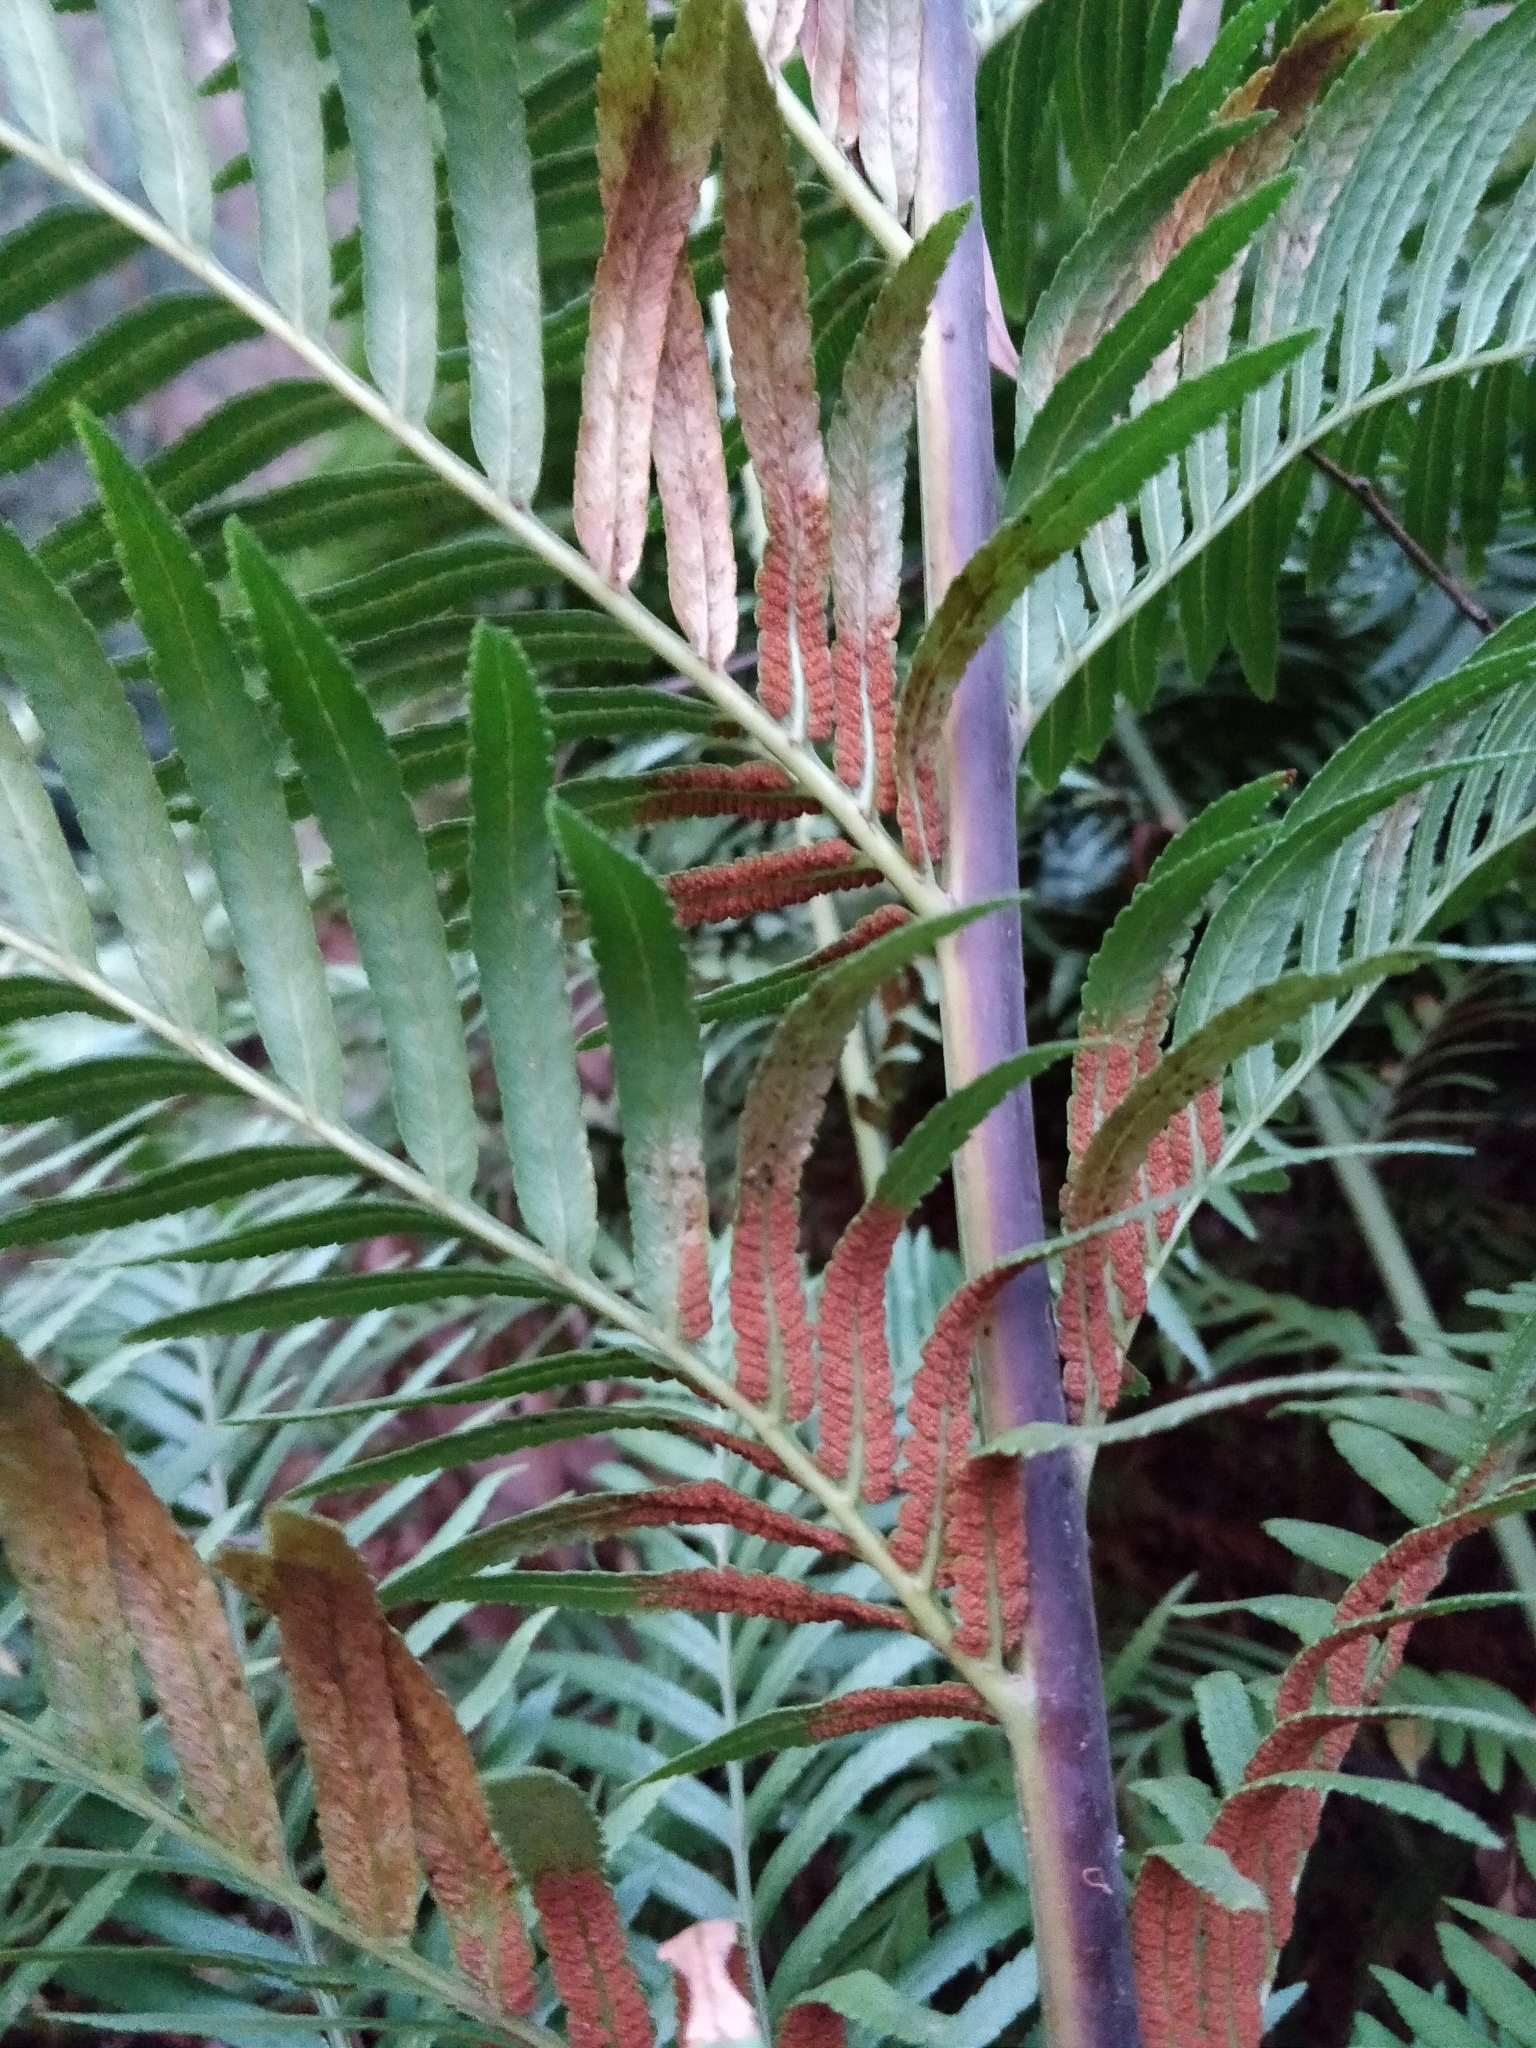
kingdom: Plantae
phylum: Tracheophyta
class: Polypodiopsida
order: Osmundales
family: Osmundaceae
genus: Todea
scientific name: Todea barbara
